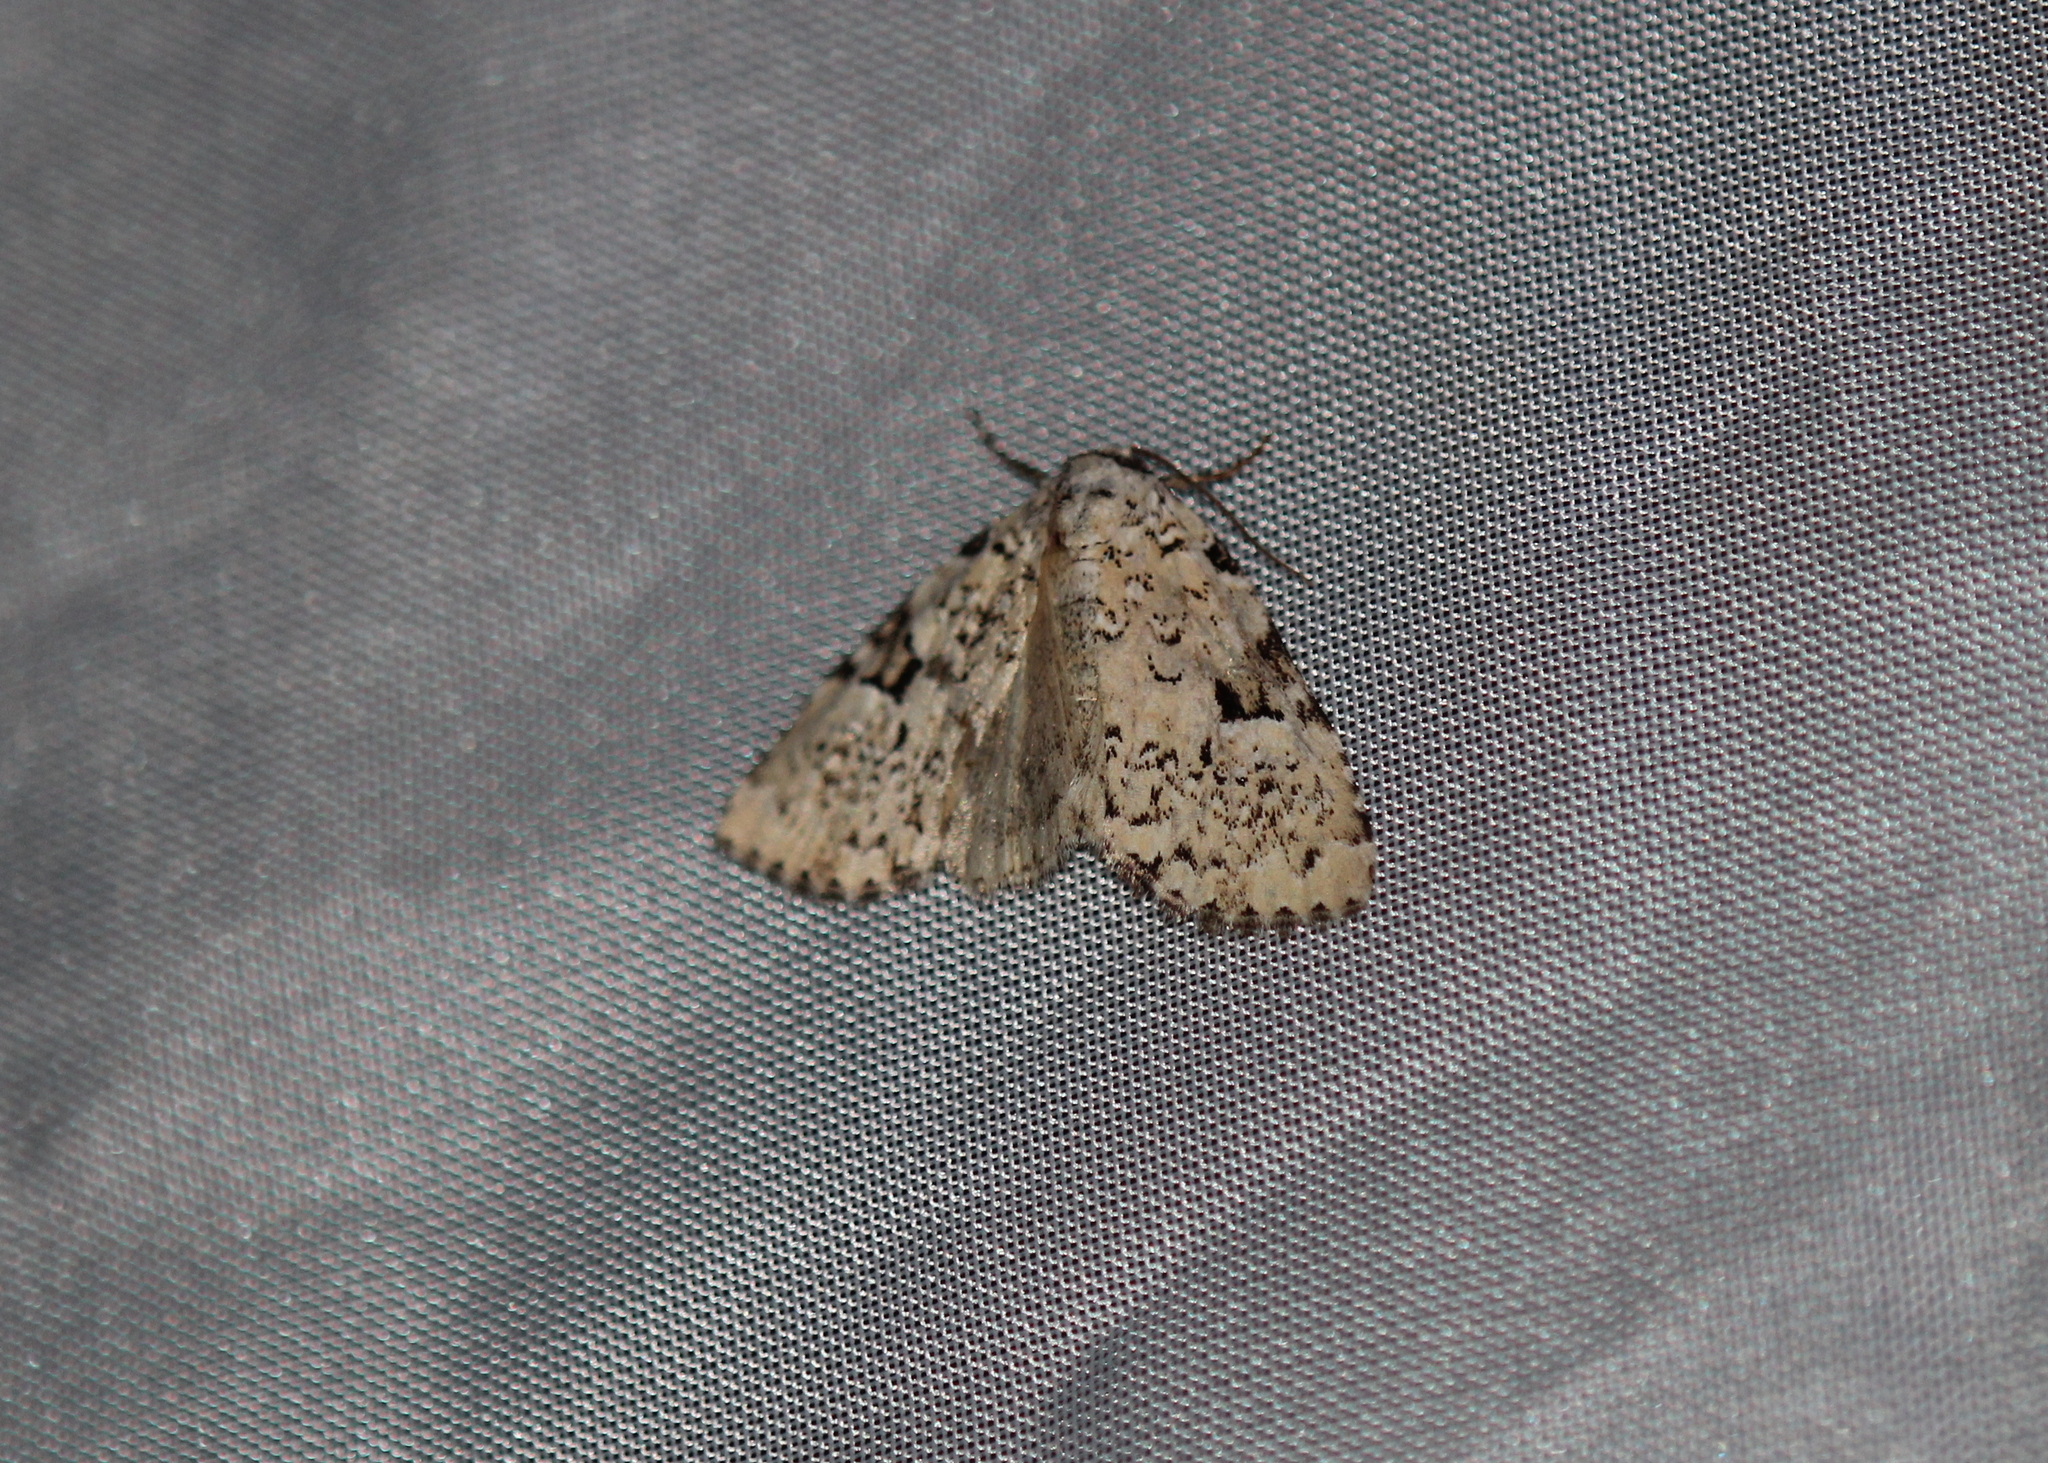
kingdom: Animalia
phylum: Arthropoda
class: Insecta
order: Lepidoptera
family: Noctuidae
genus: Leuconycta
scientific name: Leuconycta diphteroides
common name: Green leuconycta moth
